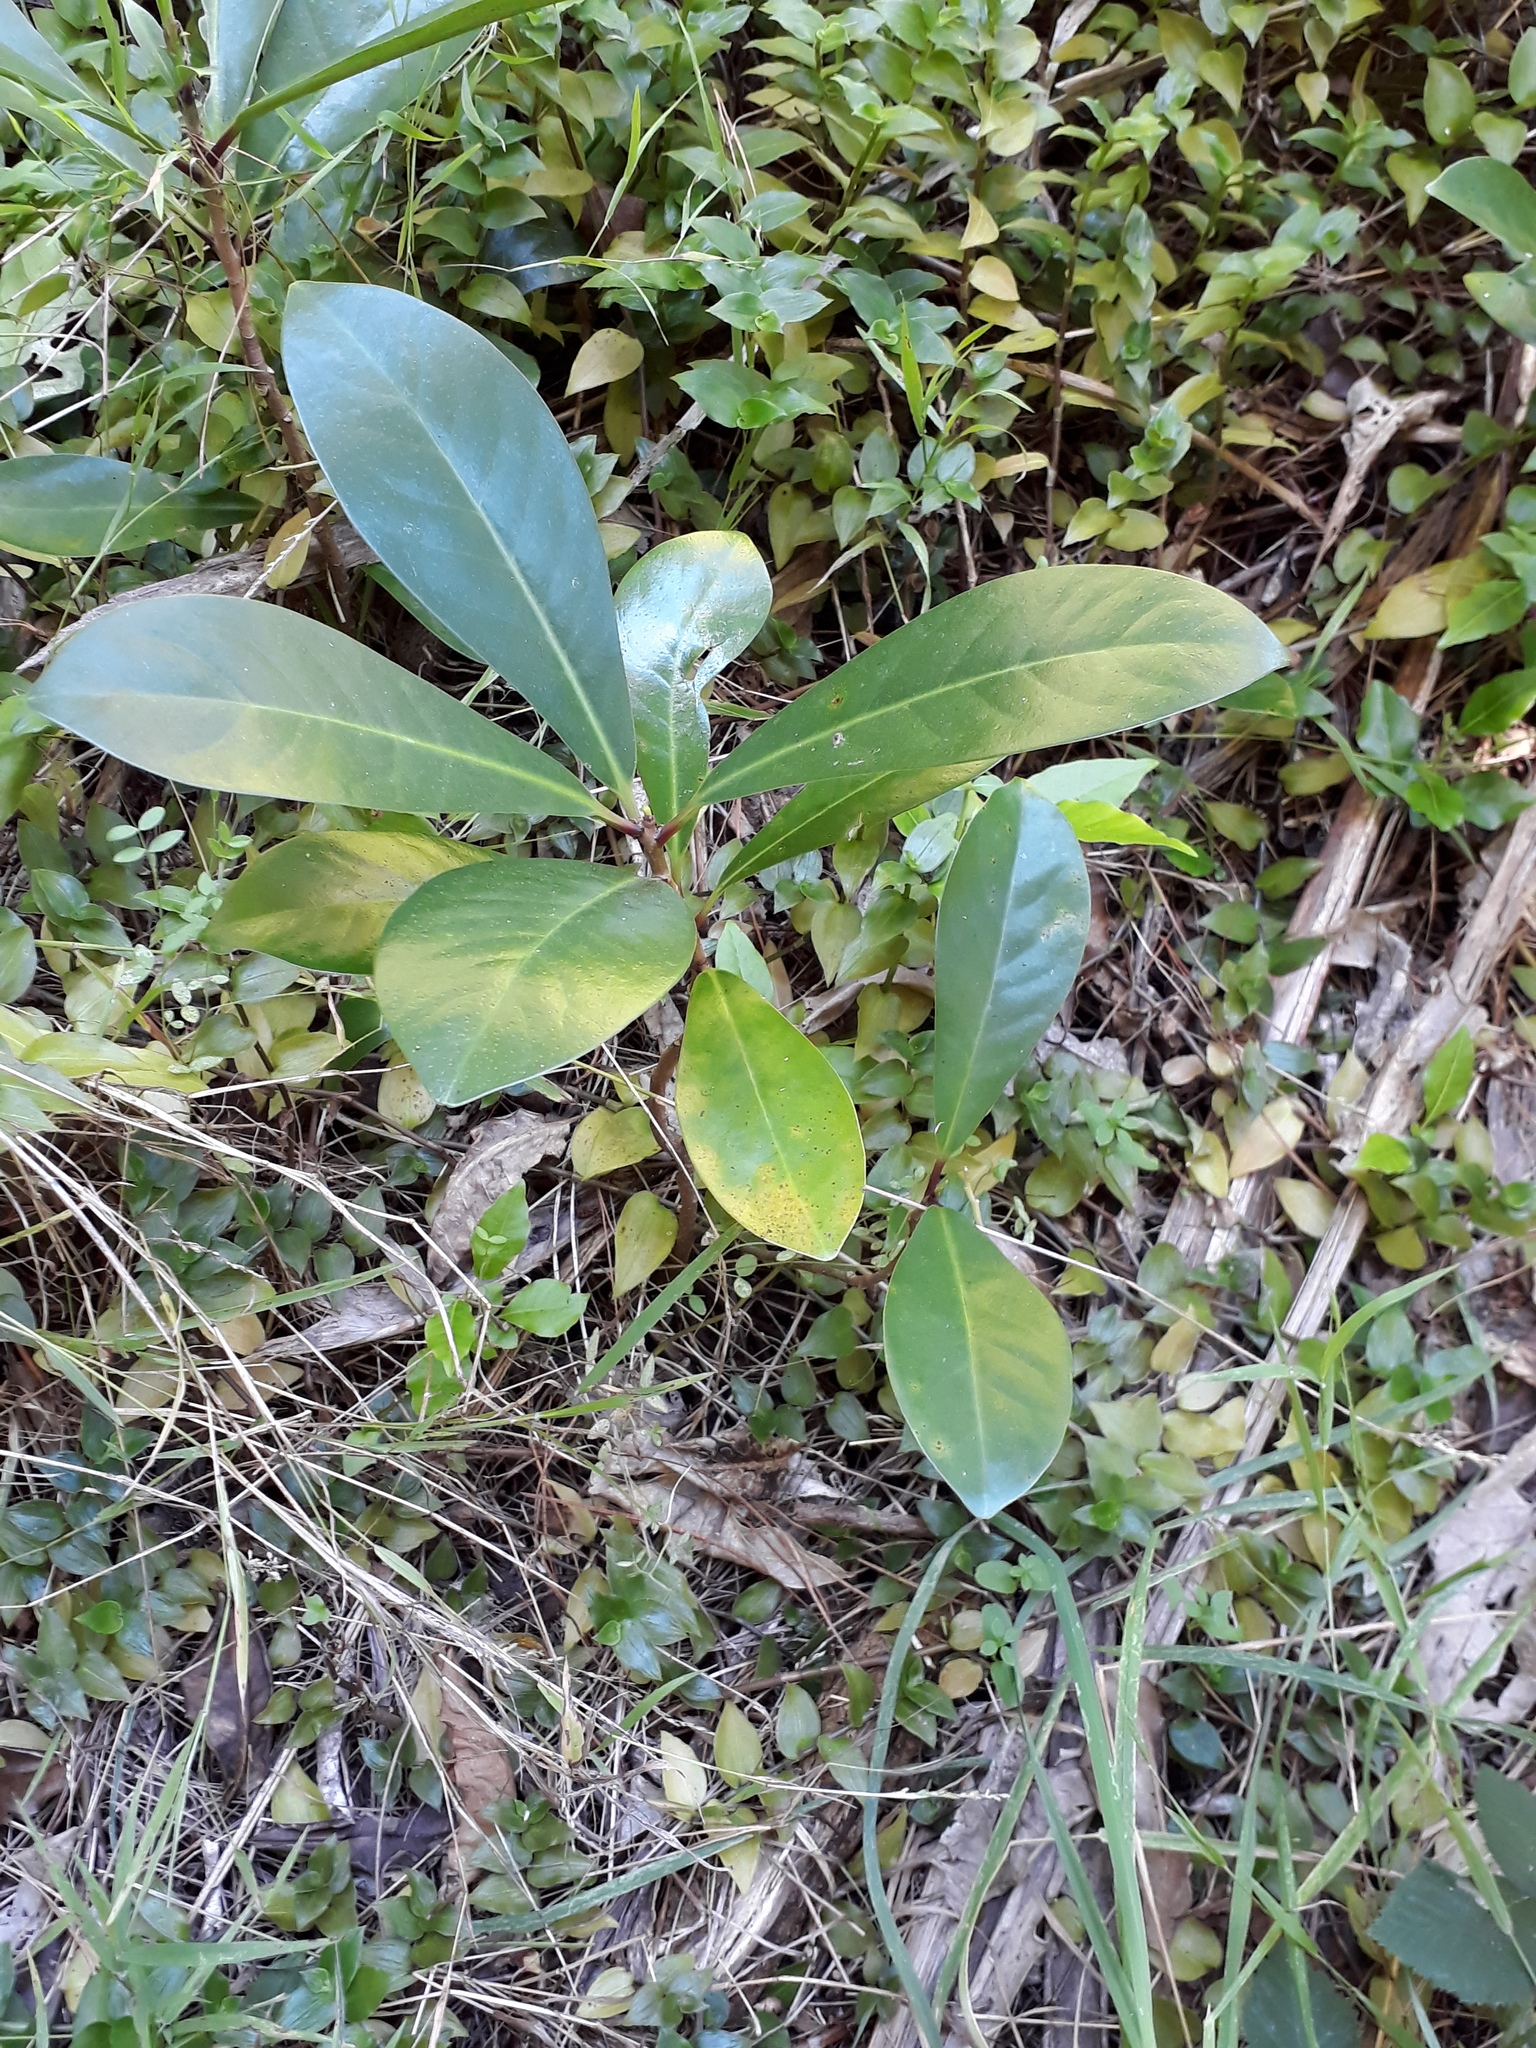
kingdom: Plantae
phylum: Tracheophyta
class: Magnoliopsida
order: Cucurbitales
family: Corynocarpaceae
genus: Corynocarpus
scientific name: Corynocarpus laevigatus
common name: New zealand laurel
